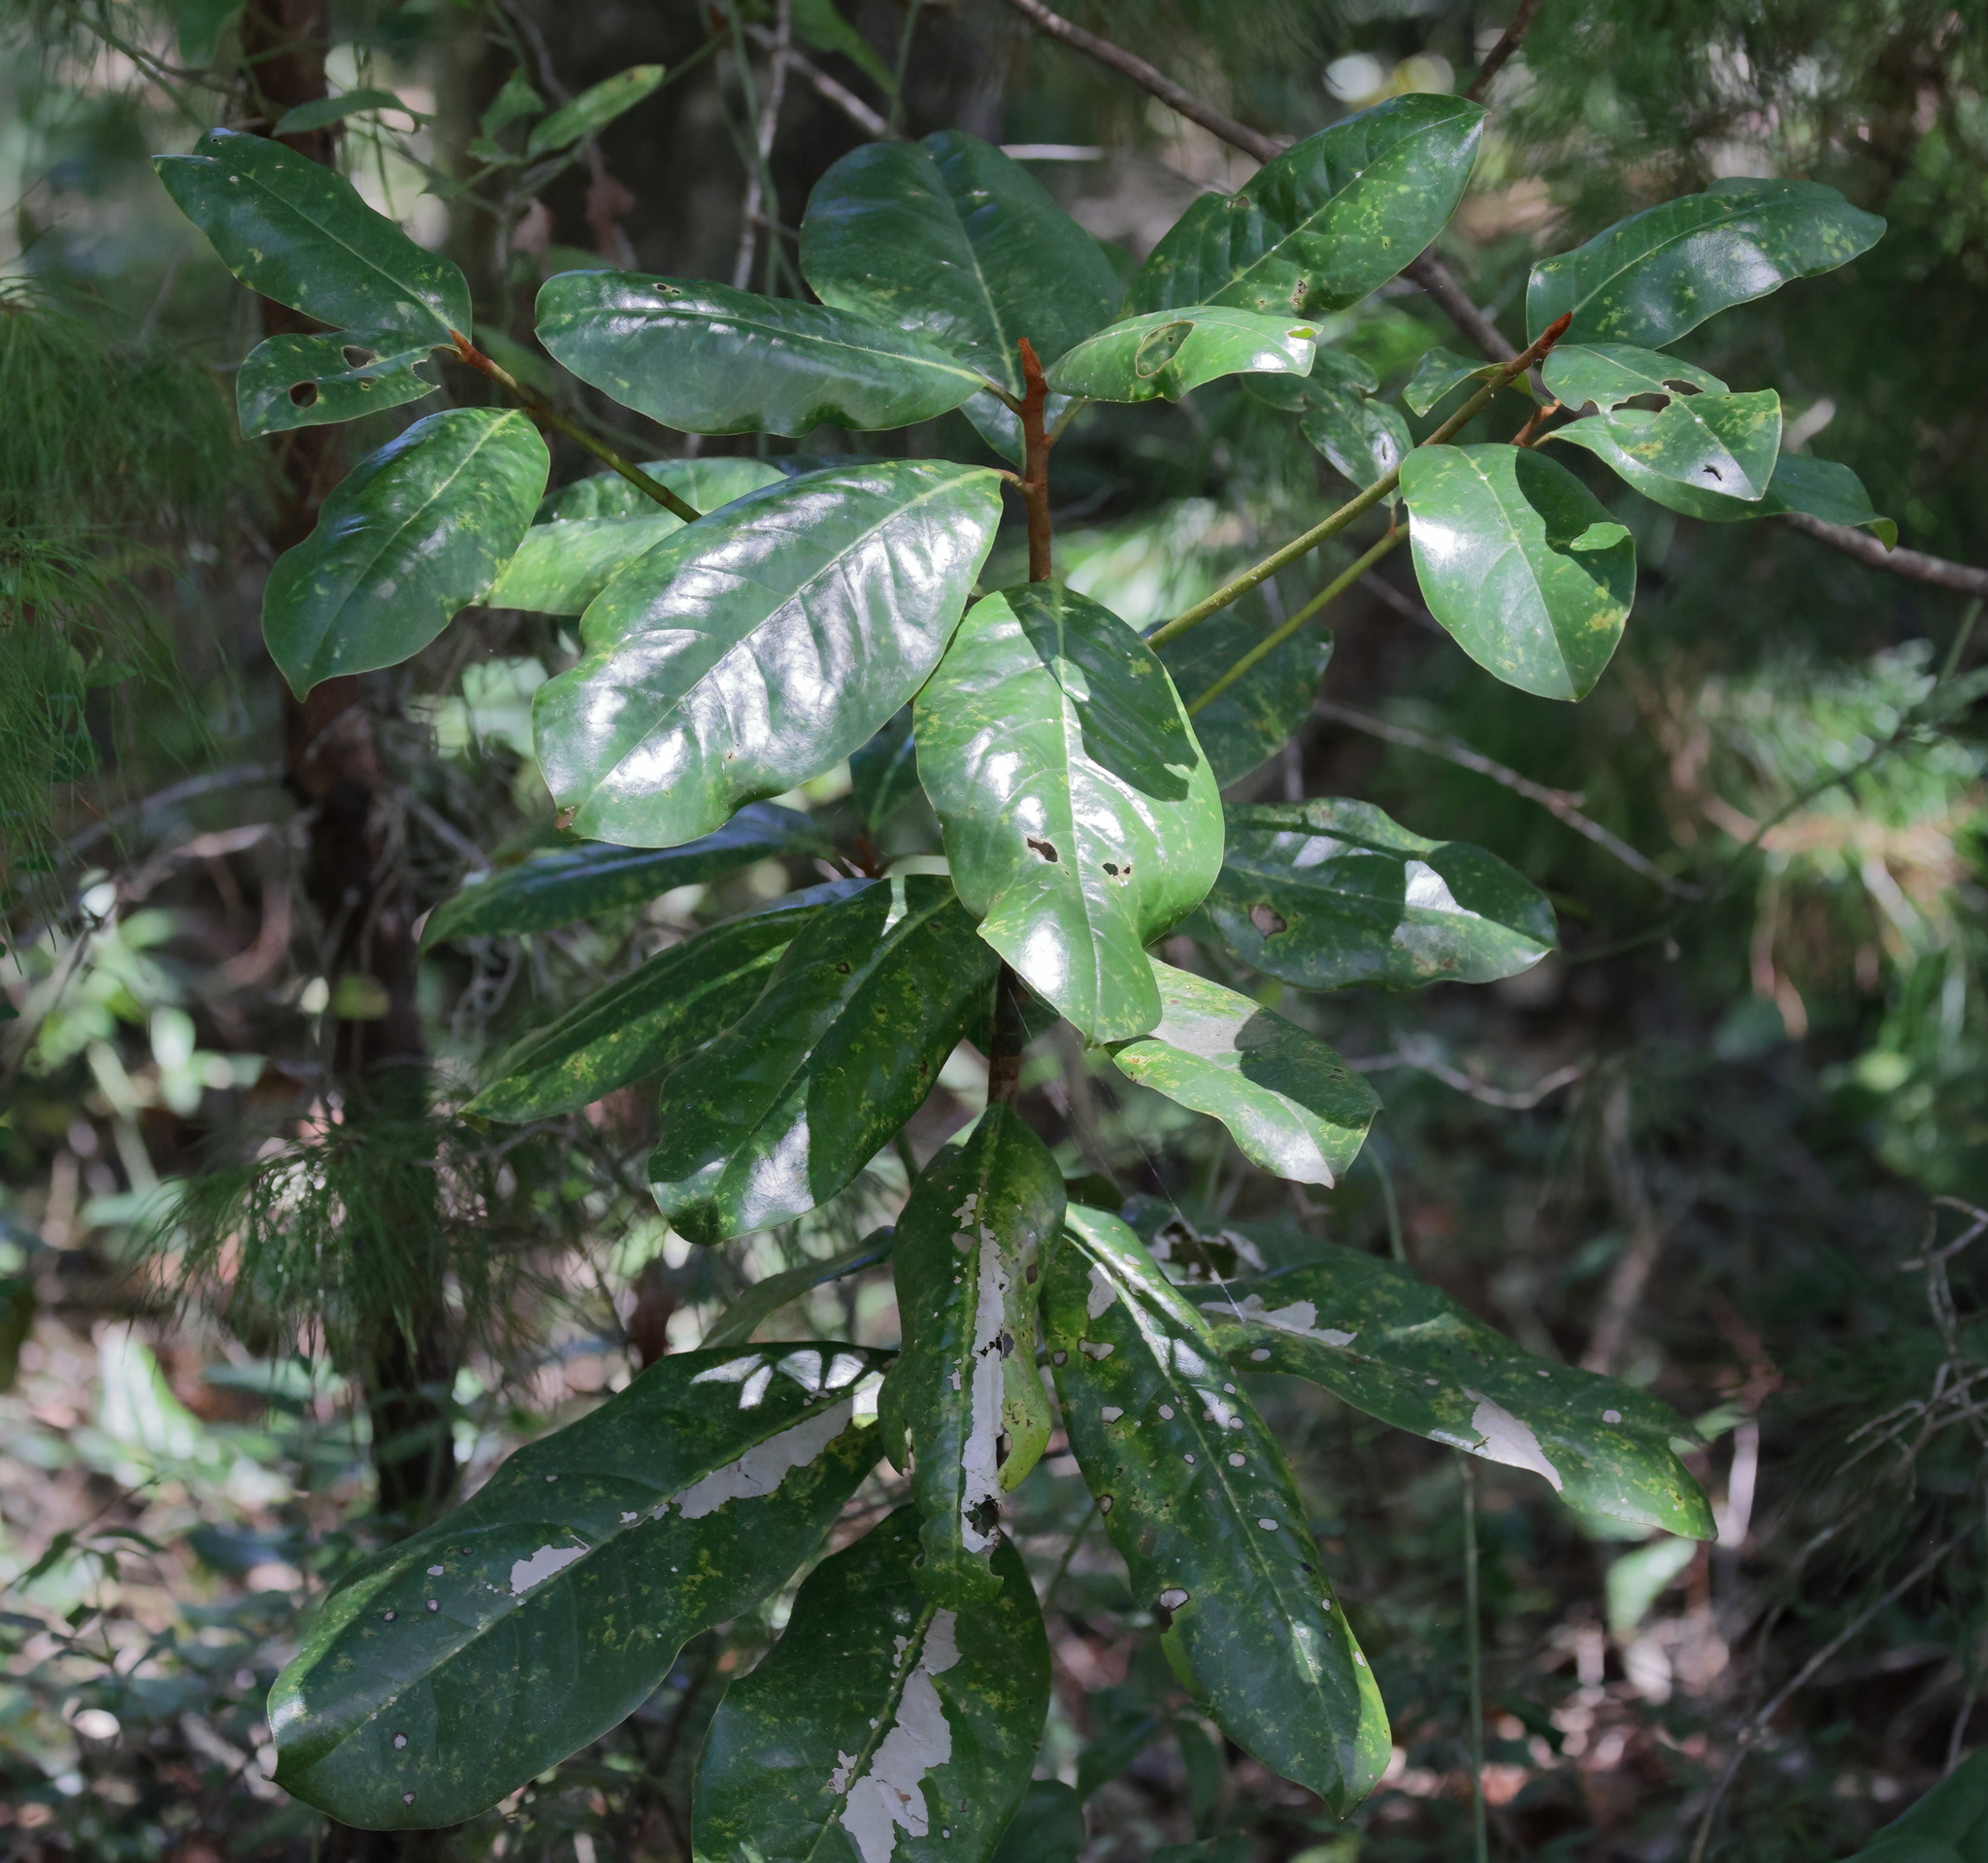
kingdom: Plantae
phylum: Tracheophyta
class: Magnoliopsida
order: Magnoliales
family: Magnoliaceae
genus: Magnolia
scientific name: Magnolia grandiflora
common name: Southern magnolia
